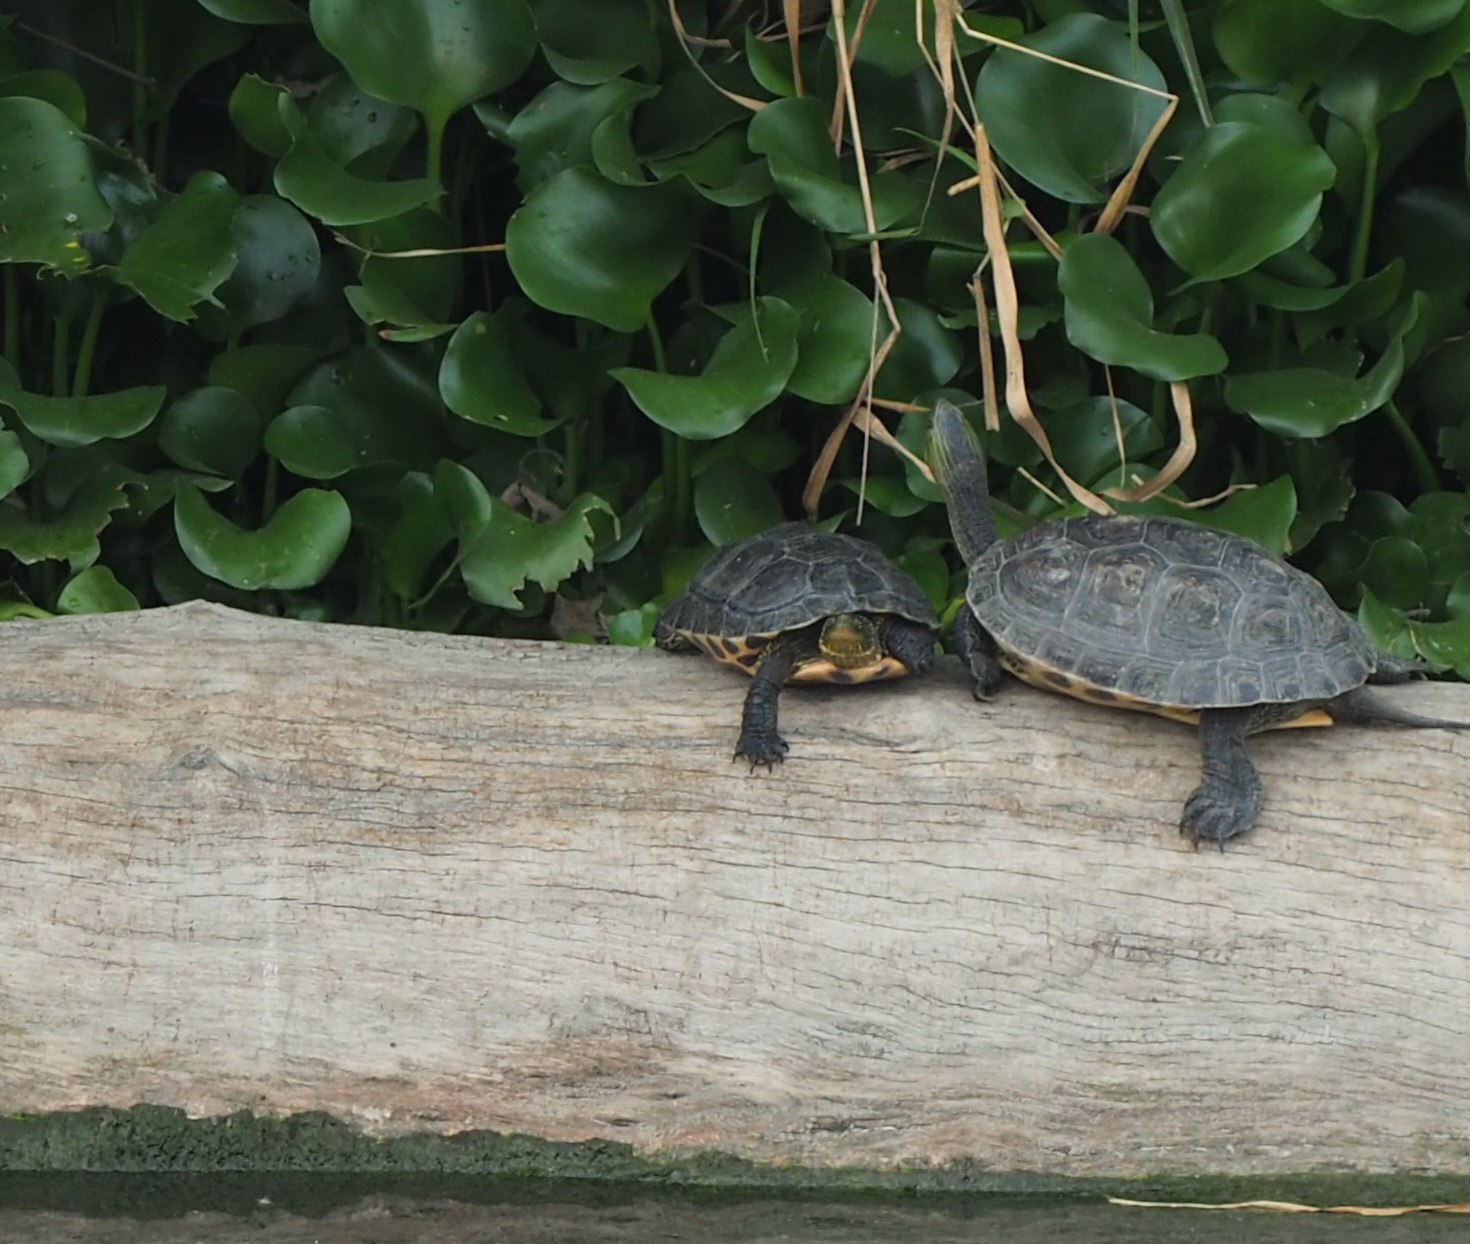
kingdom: Animalia
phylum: Chordata
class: Testudines
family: Geoemydidae
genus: Mauremys
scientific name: Mauremys sinensis
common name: Chinese stripe-necked turtle
